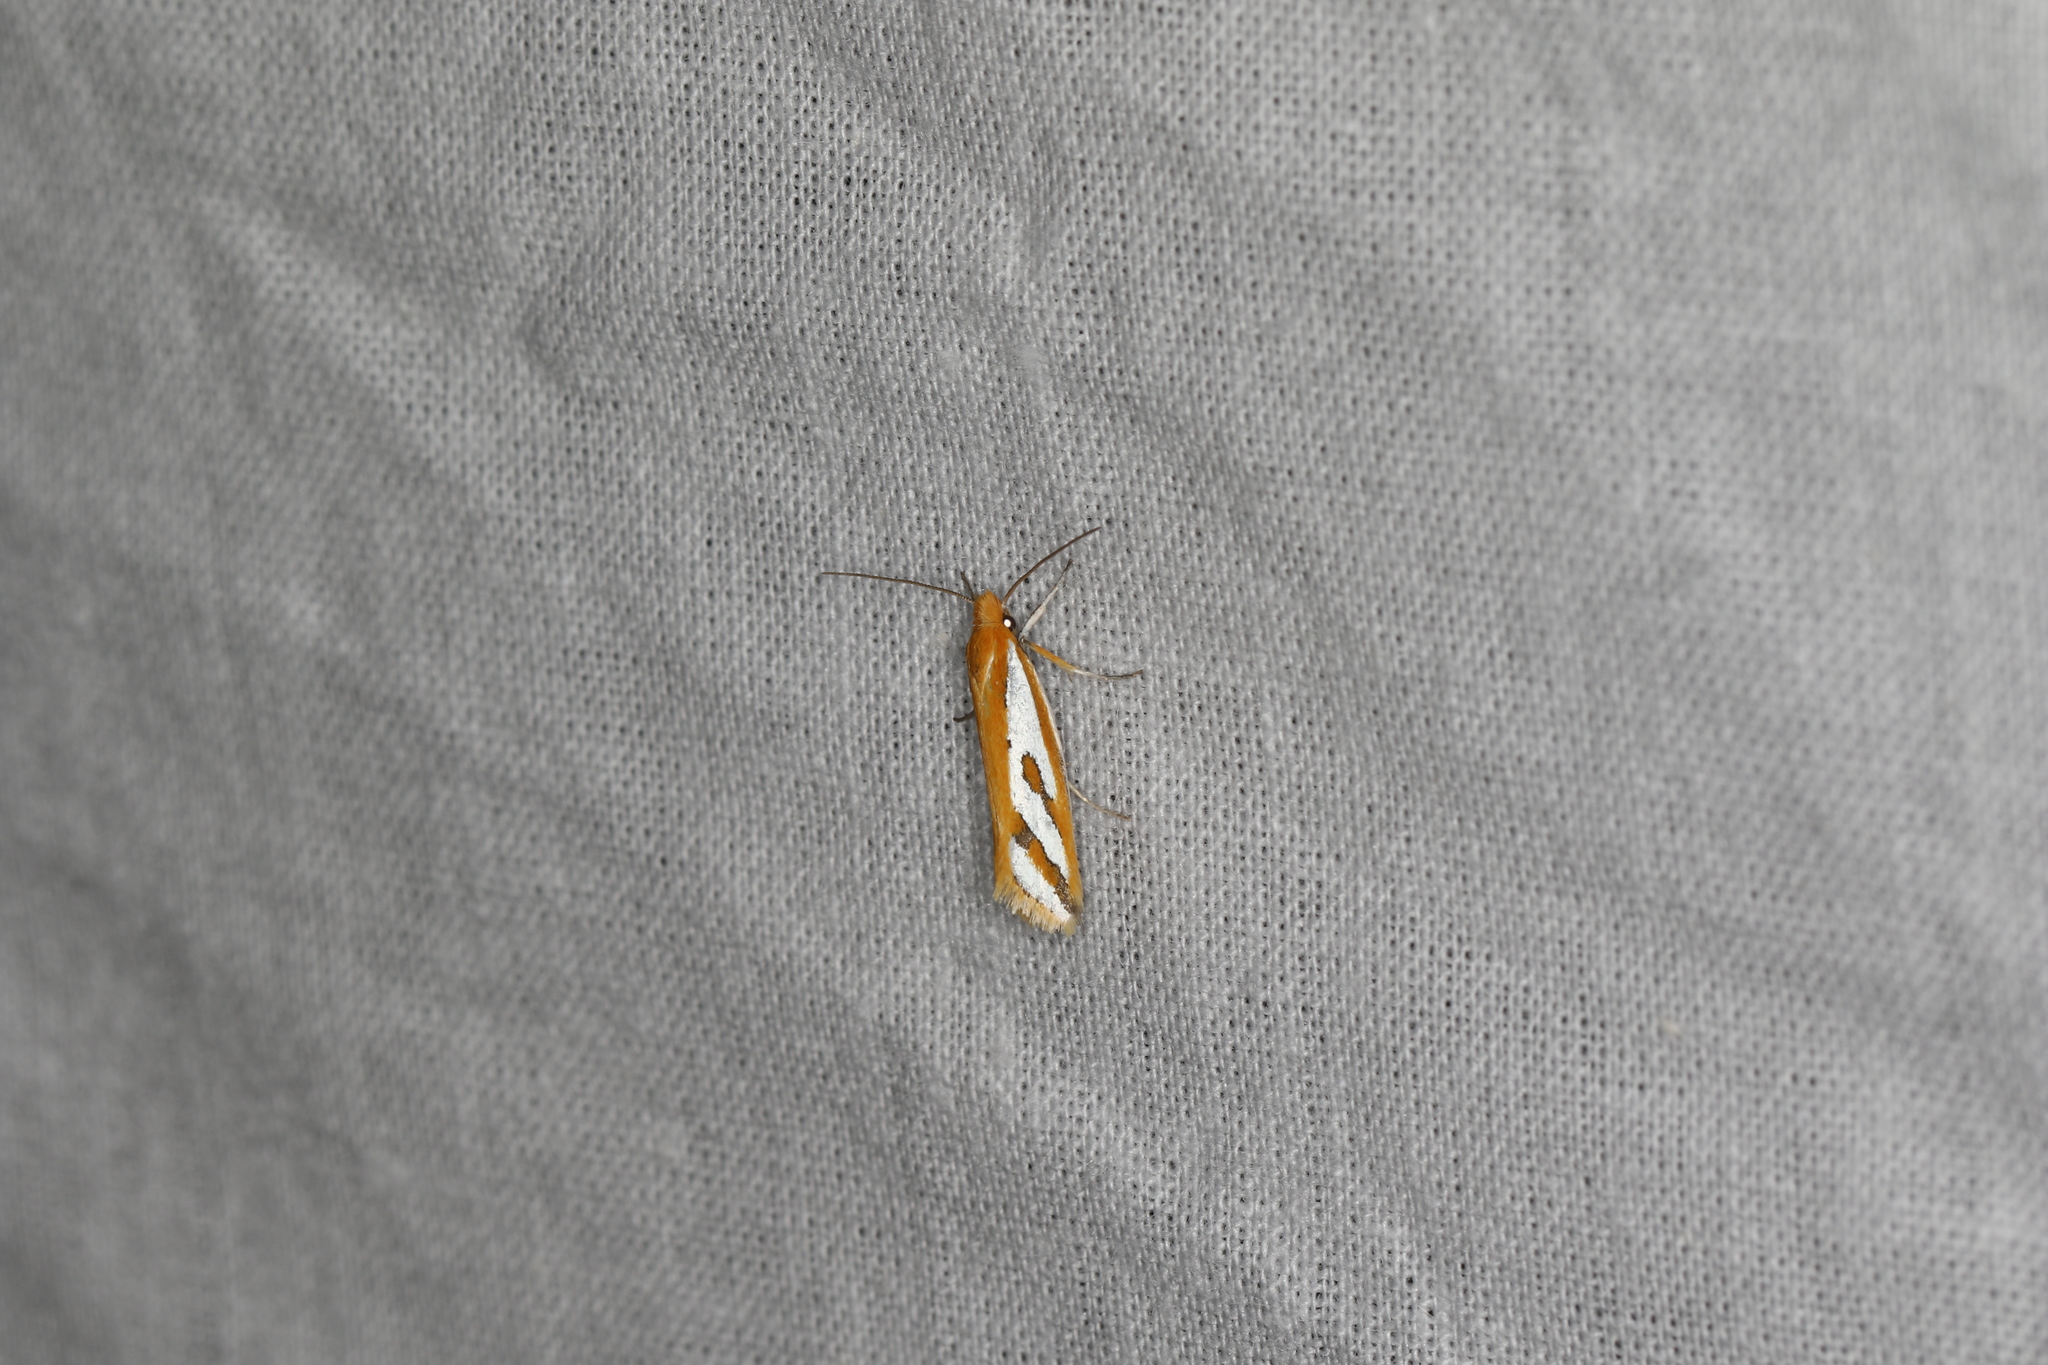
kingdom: Animalia
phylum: Arthropoda
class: Insecta
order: Lepidoptera
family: Depressariidae
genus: Thudaca
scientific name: Thudaca haplonota
